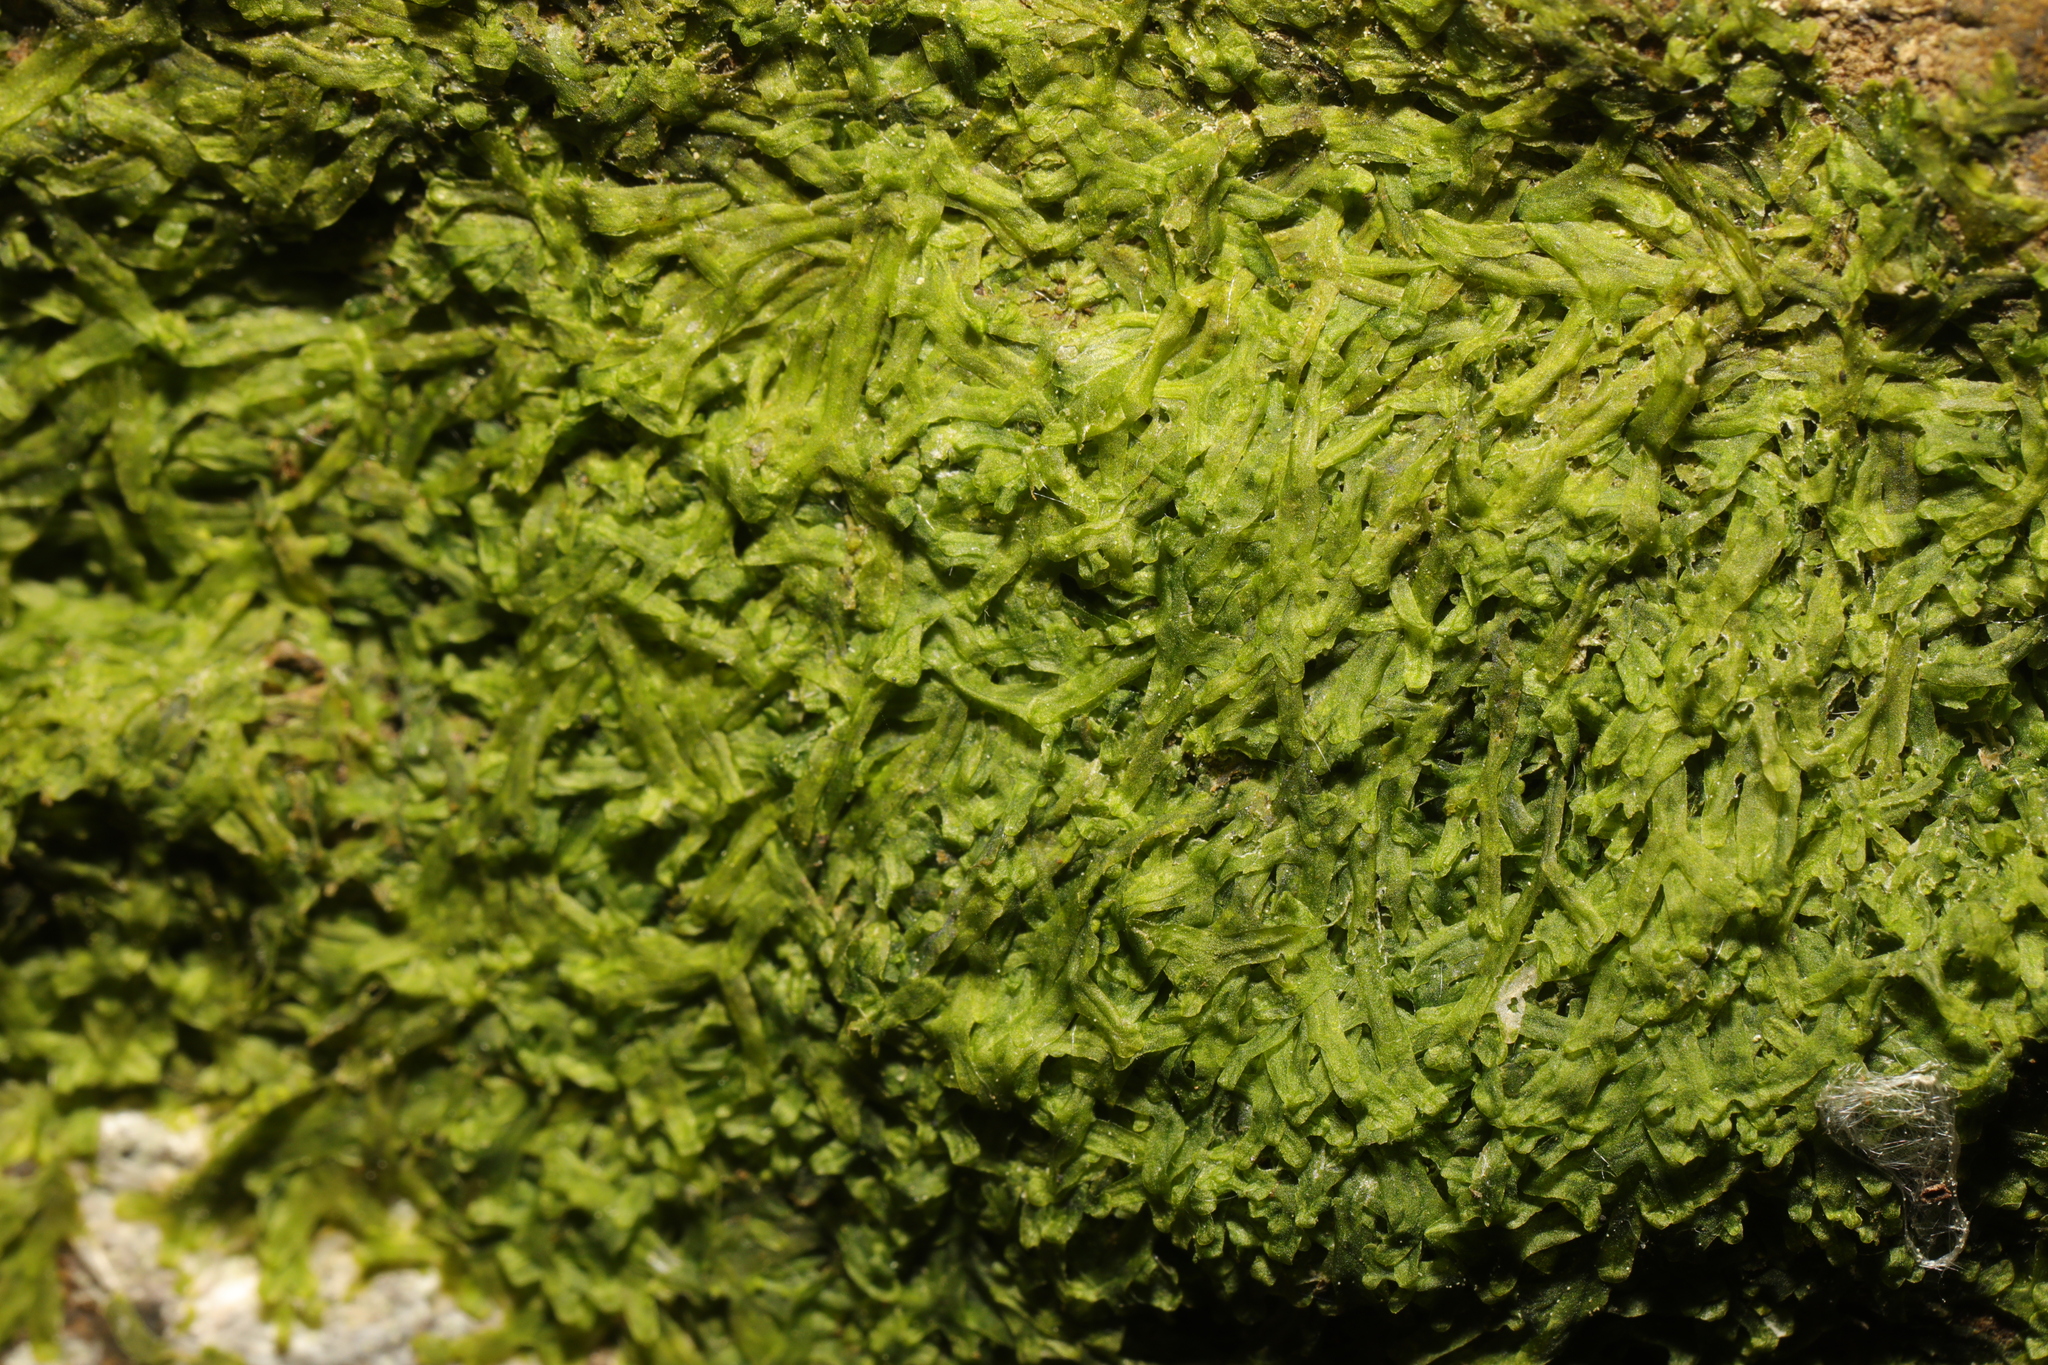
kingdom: Plantae
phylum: Marchantiophyta
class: Jungermanniopsida
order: Metzgeriales
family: Metzgeriaceae
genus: Metzgeria
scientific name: Metzgeria furcata
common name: Forked veilwort
